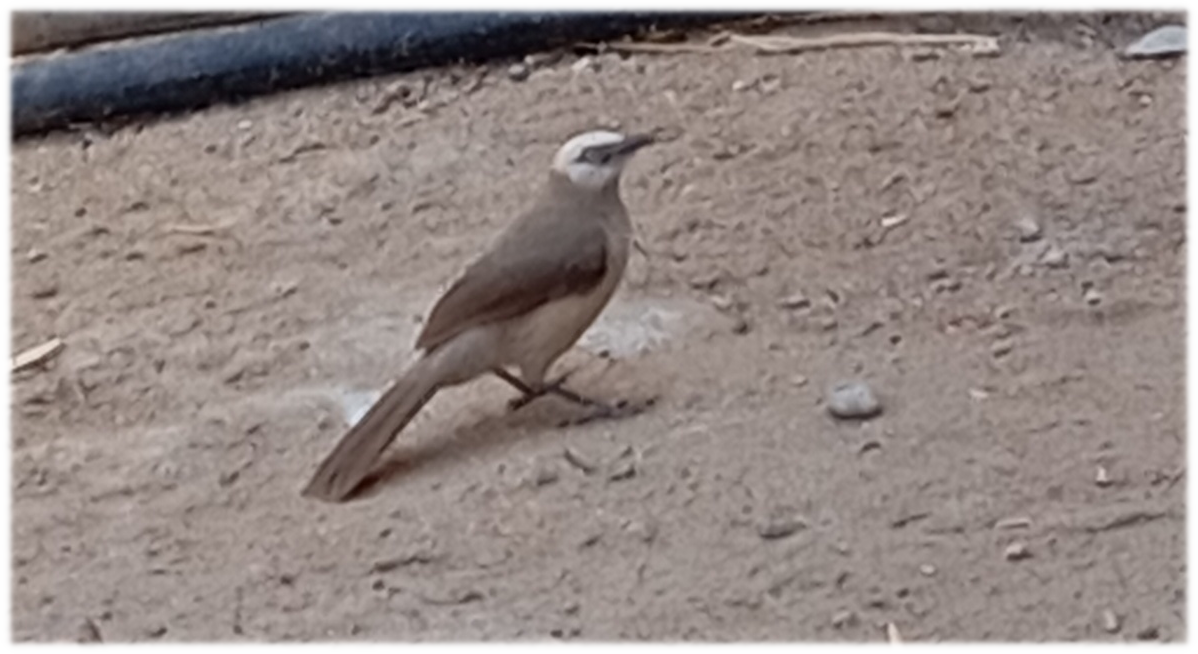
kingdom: Animalia
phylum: Chordata
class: Aves
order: Passeriformes
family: Leiothrichidae
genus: Turdoides
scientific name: Turdoides leucocephala
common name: White-headed babbler
